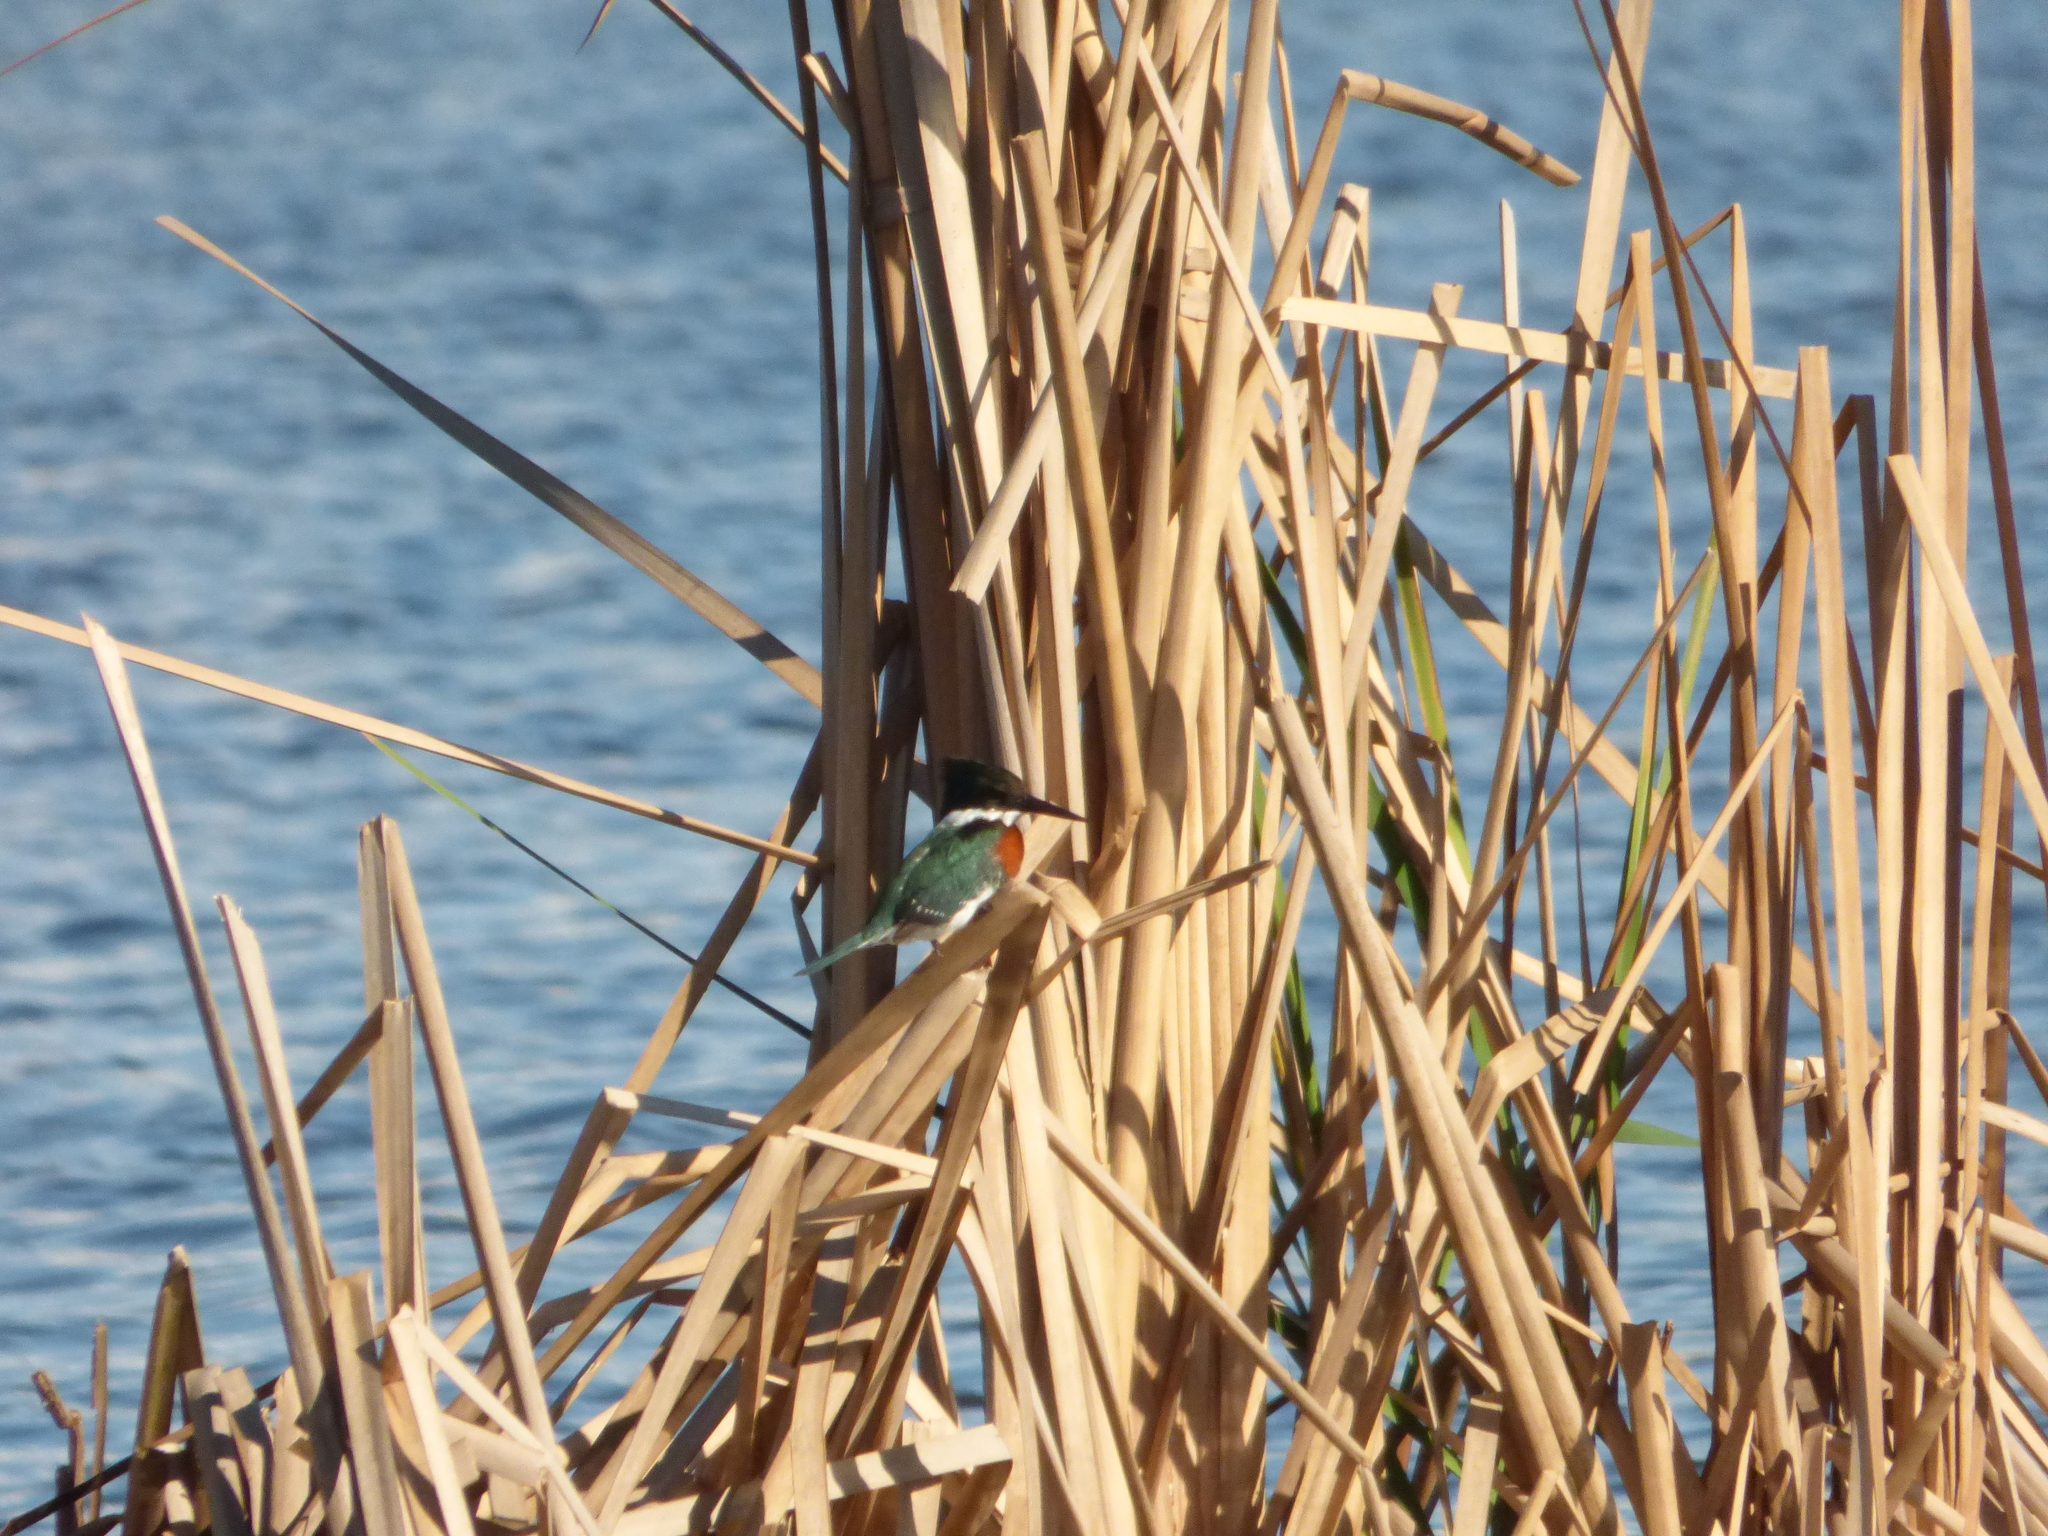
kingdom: Animalia
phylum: Chordata
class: Aves
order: Coraciiformes
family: Alcedinidae
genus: Chloroceryle
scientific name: Chloroceryle americana
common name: Green kingfisher
